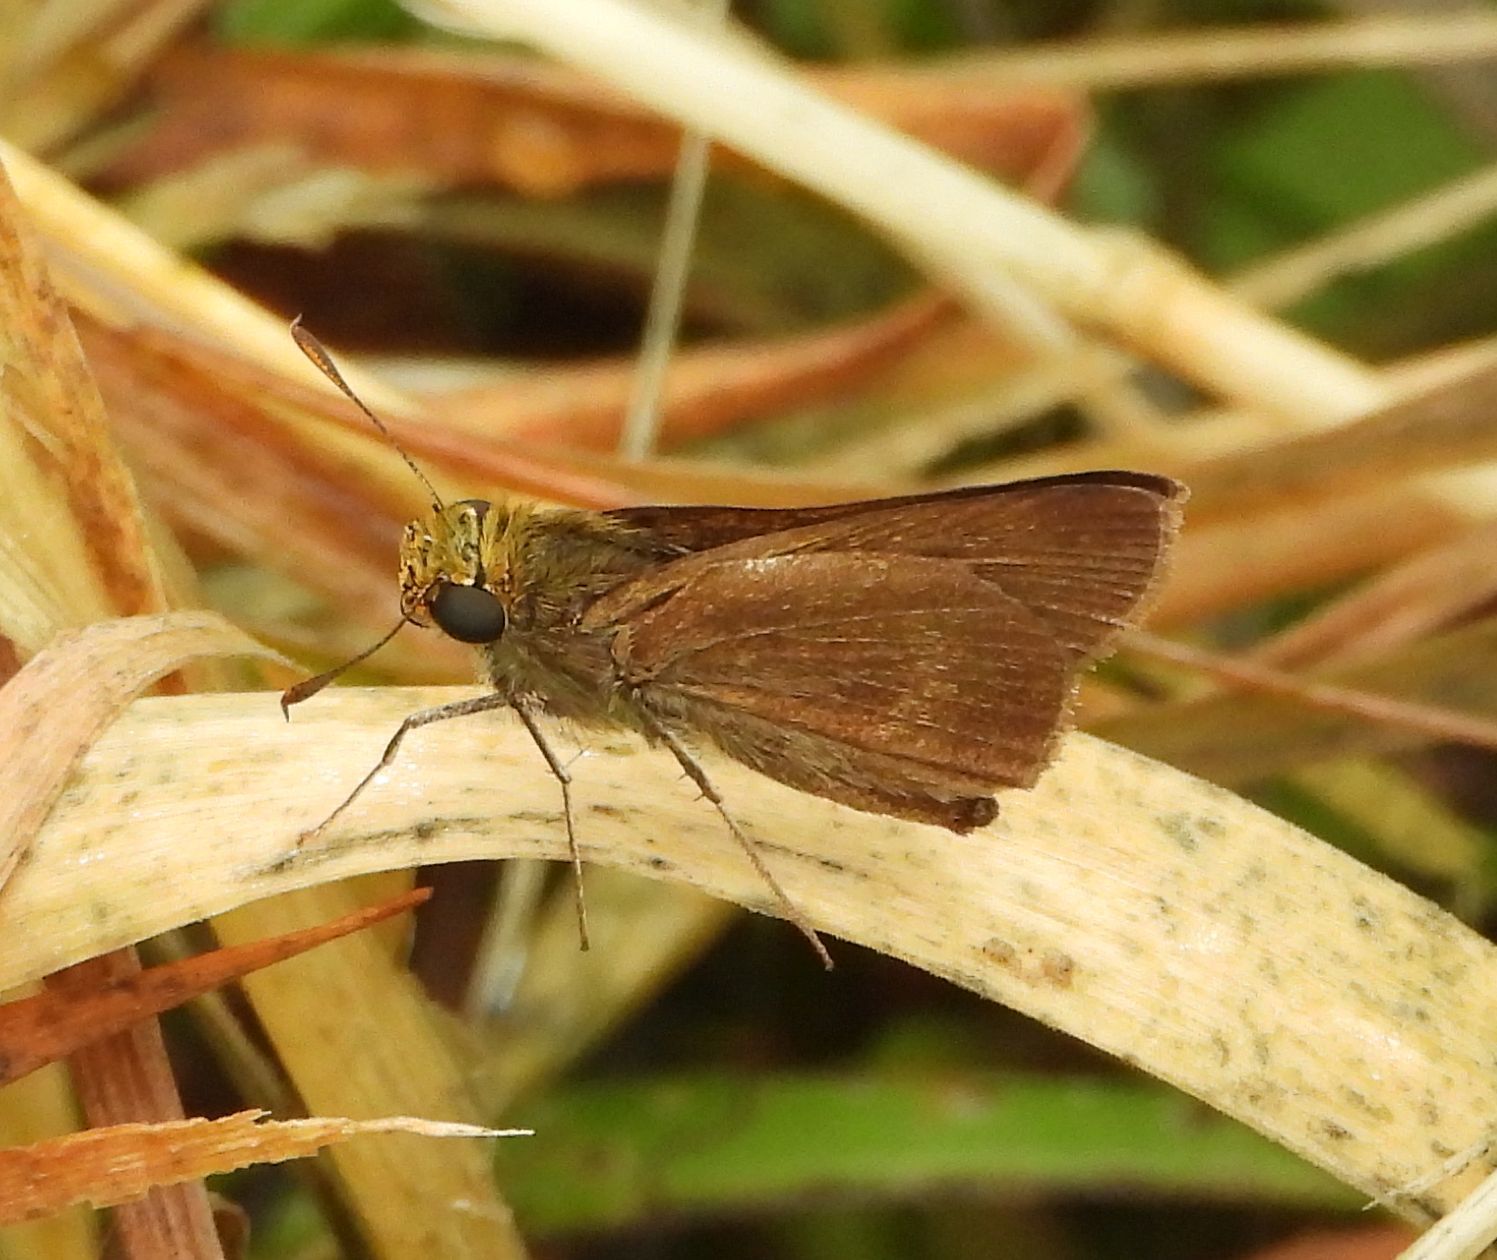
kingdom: Animalia
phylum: Arthropoda
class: Insecta
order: Lepidoptera
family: Hesperiidae
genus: Euphyes
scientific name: Euphyes vestris
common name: Dun skipper
